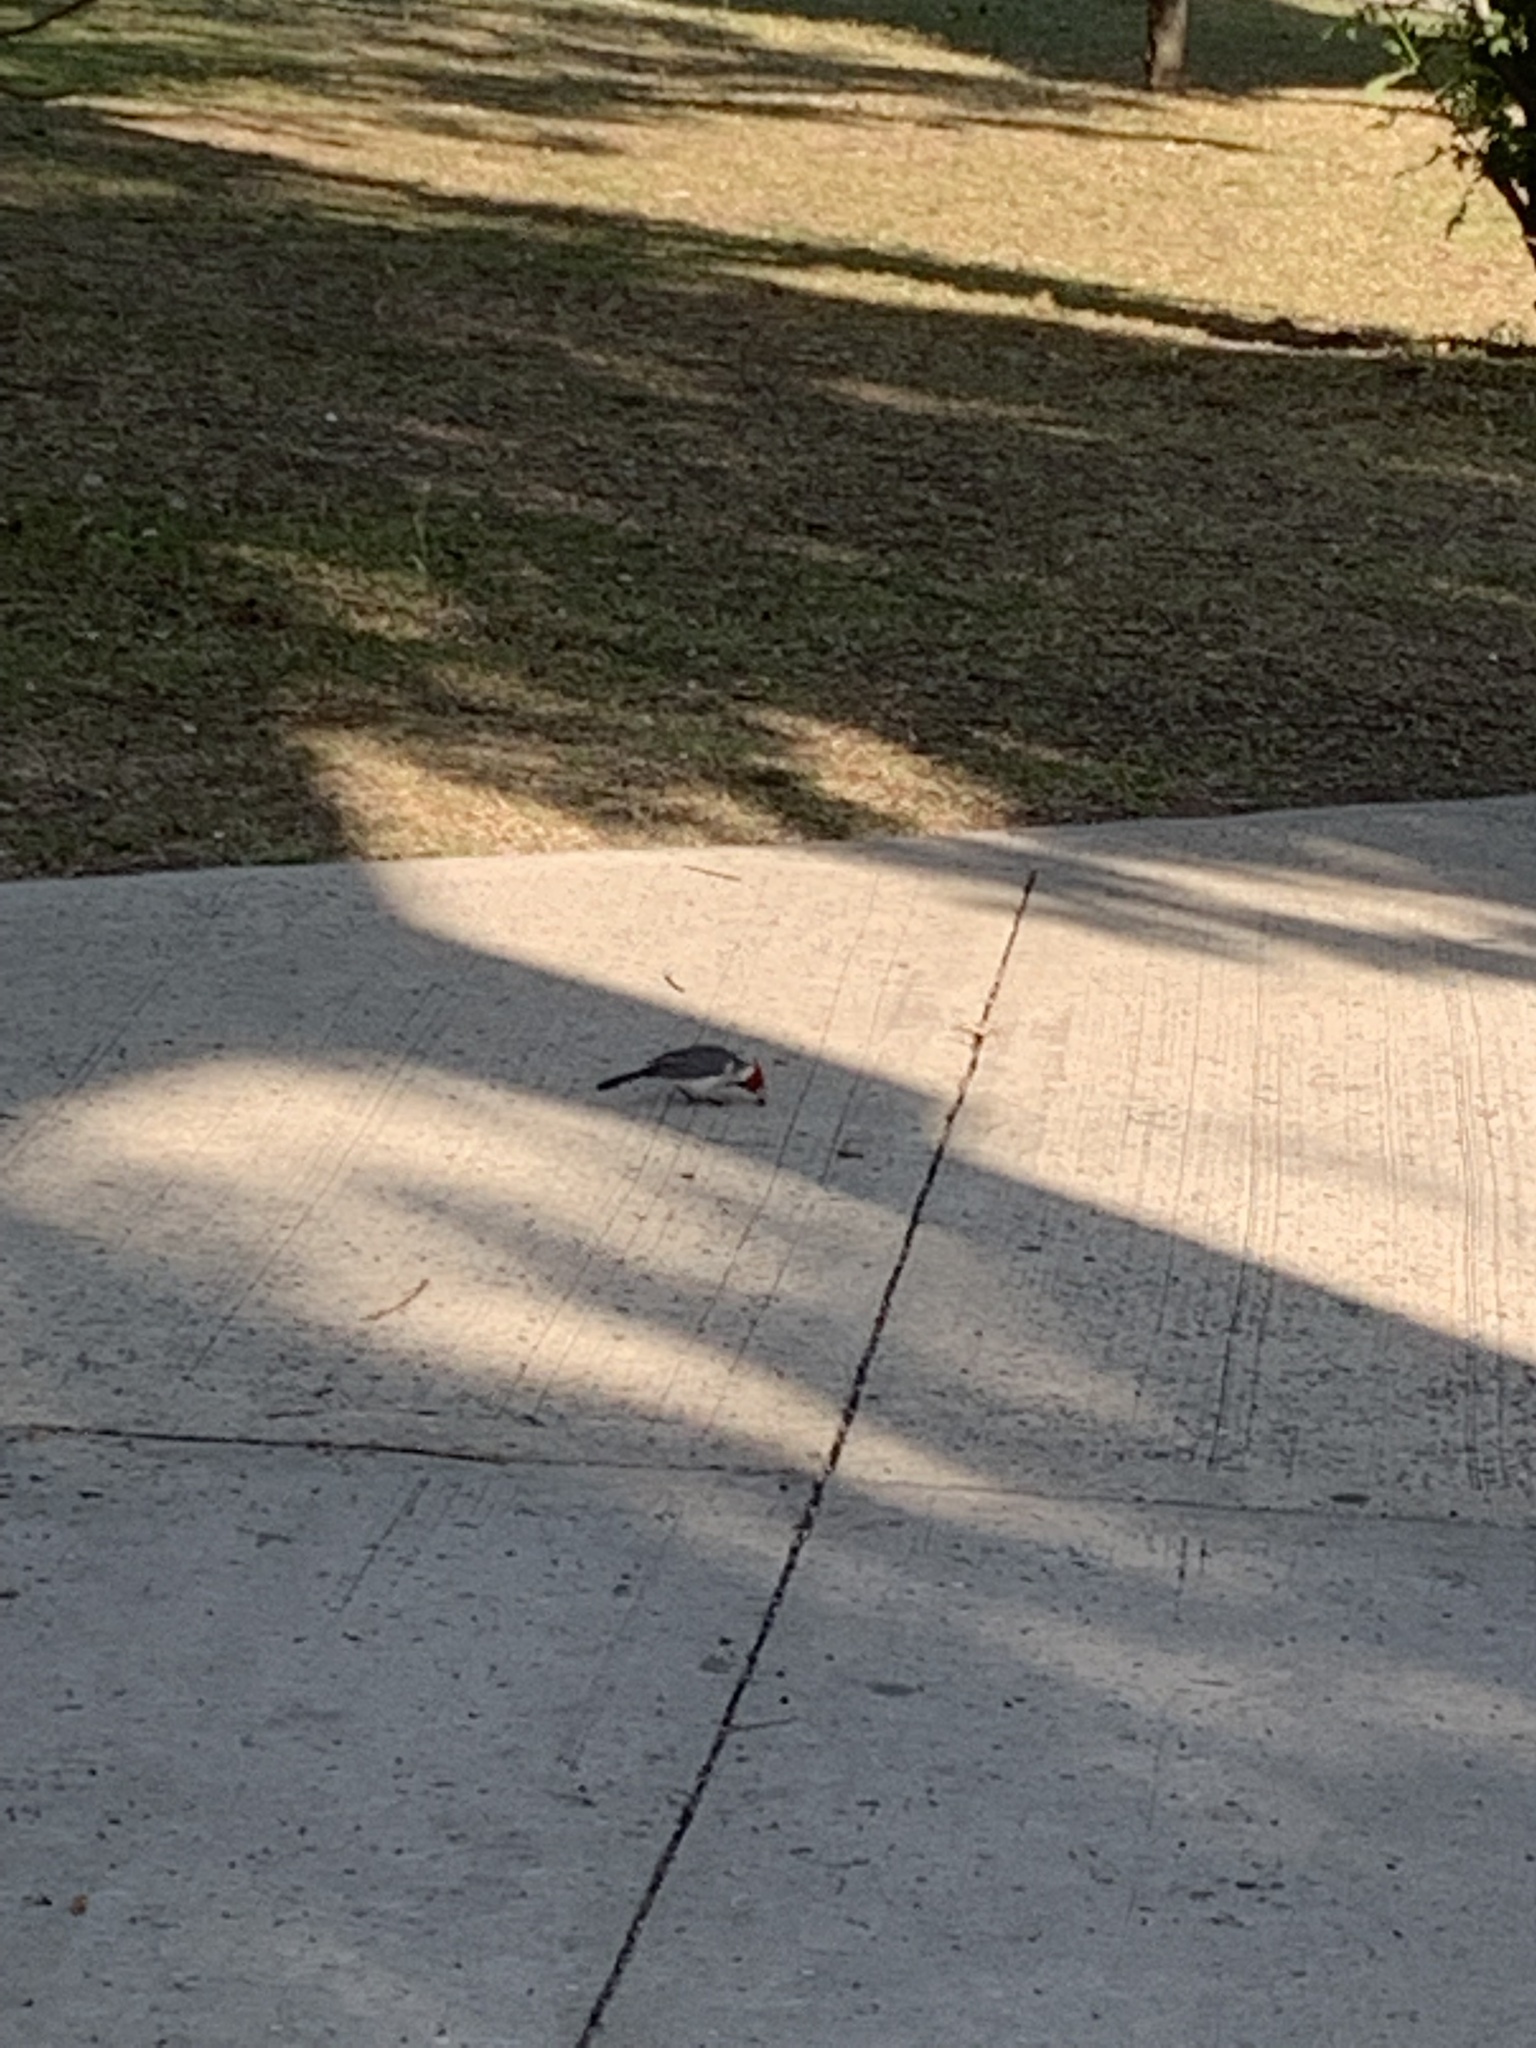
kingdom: Animalia
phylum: Chordata
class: Aves
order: Passeriformes
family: Thraupidae
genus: Paroaria
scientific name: Paroaria coronata
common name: Red-crested cardinal
